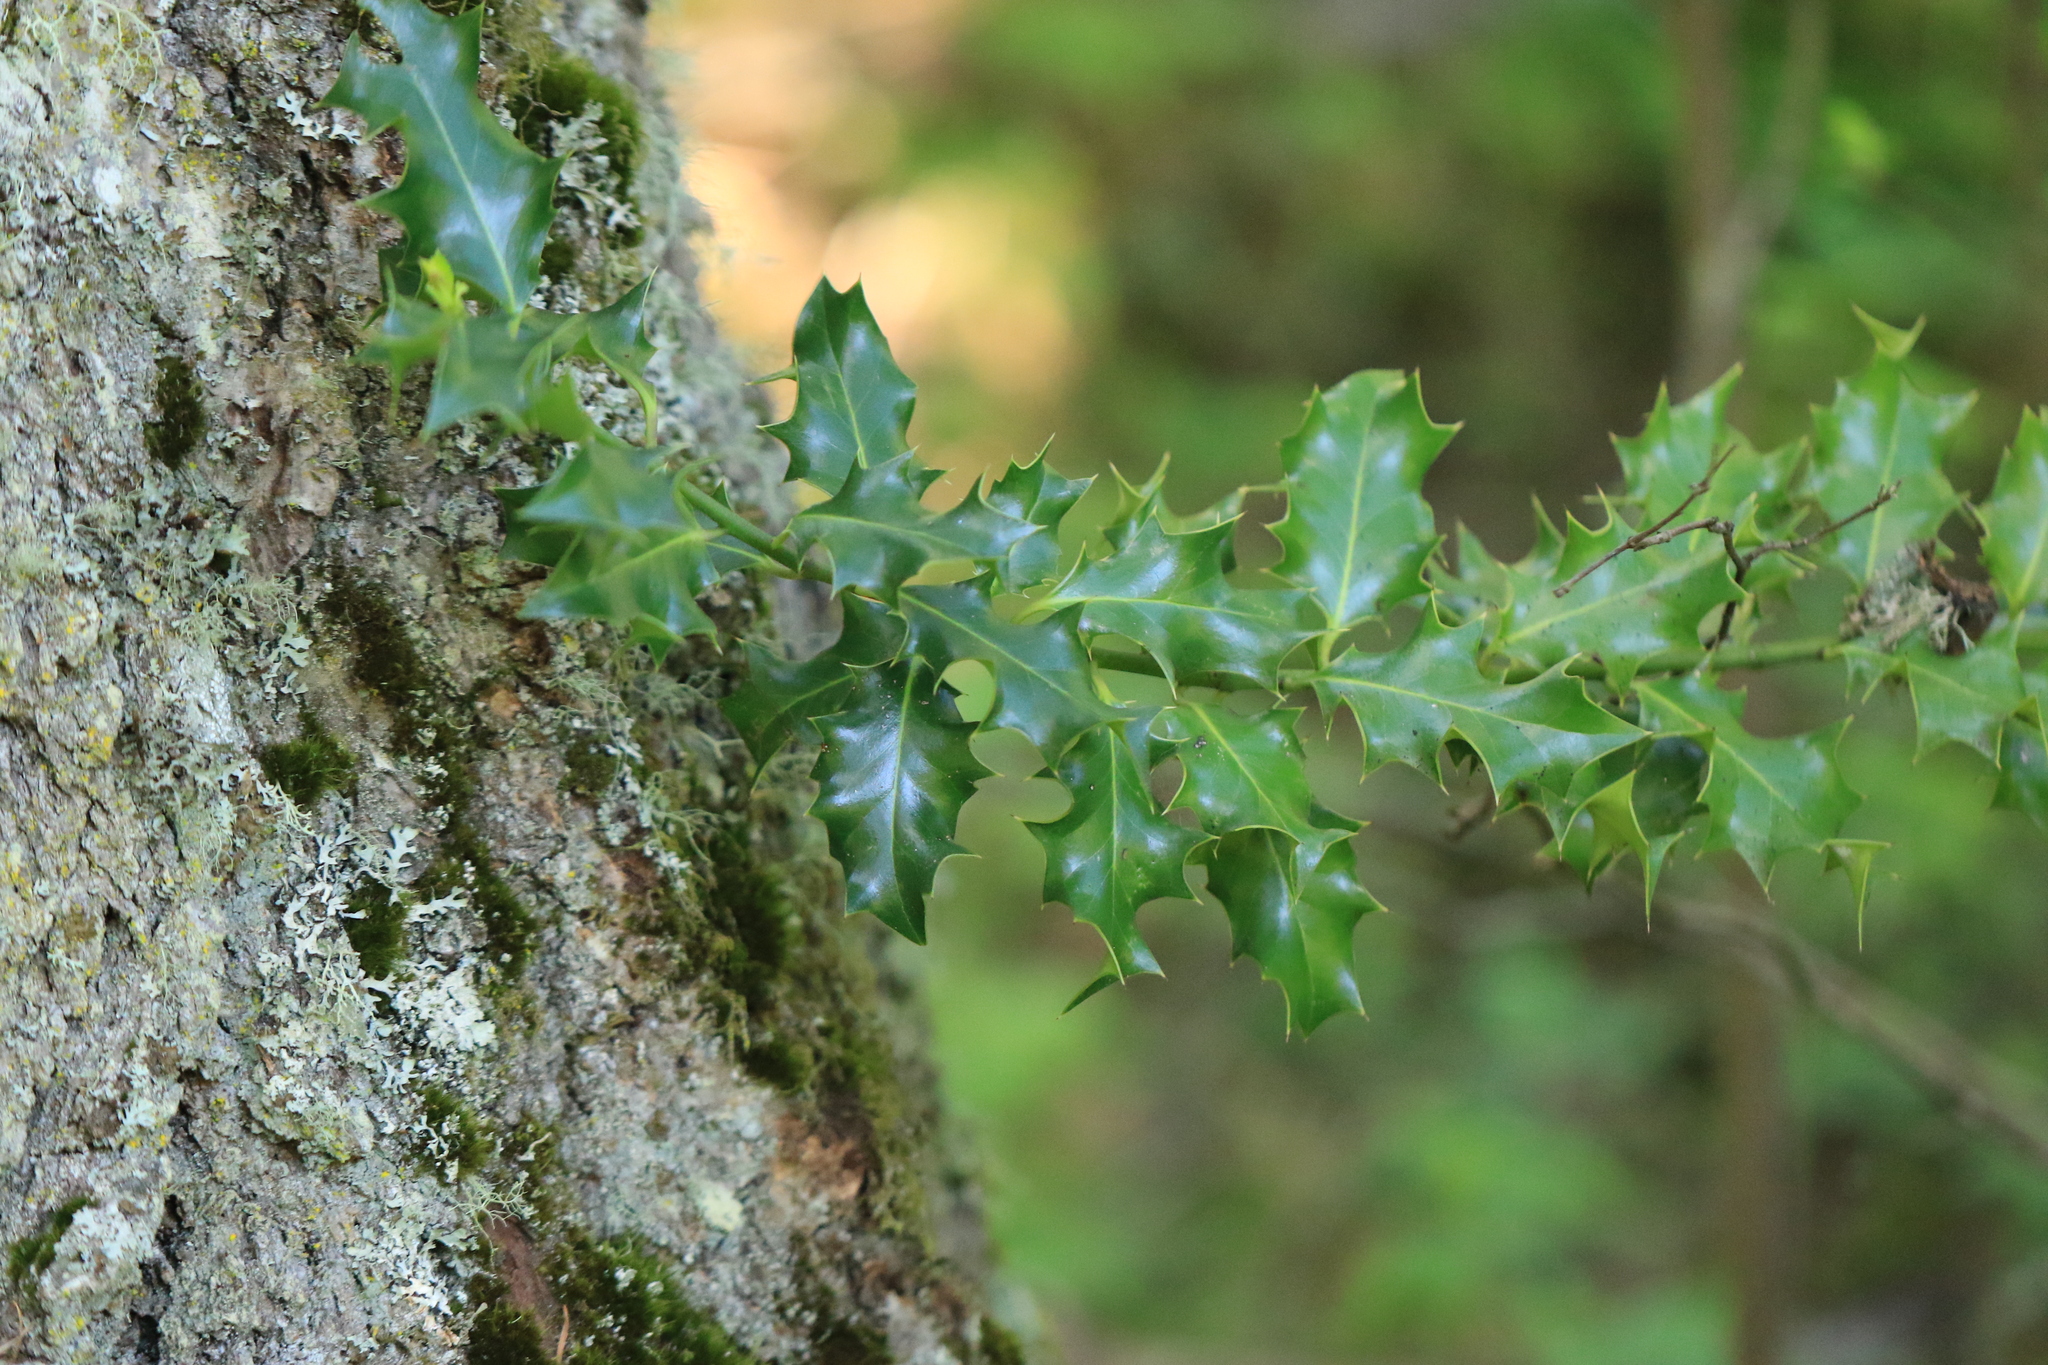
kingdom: Plantae
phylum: Tracheophyta
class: Magnoliopsida
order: Aquifoliales
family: Aquifoliaceae
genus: Ilex
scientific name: Ilex aquifolium
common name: English holly
